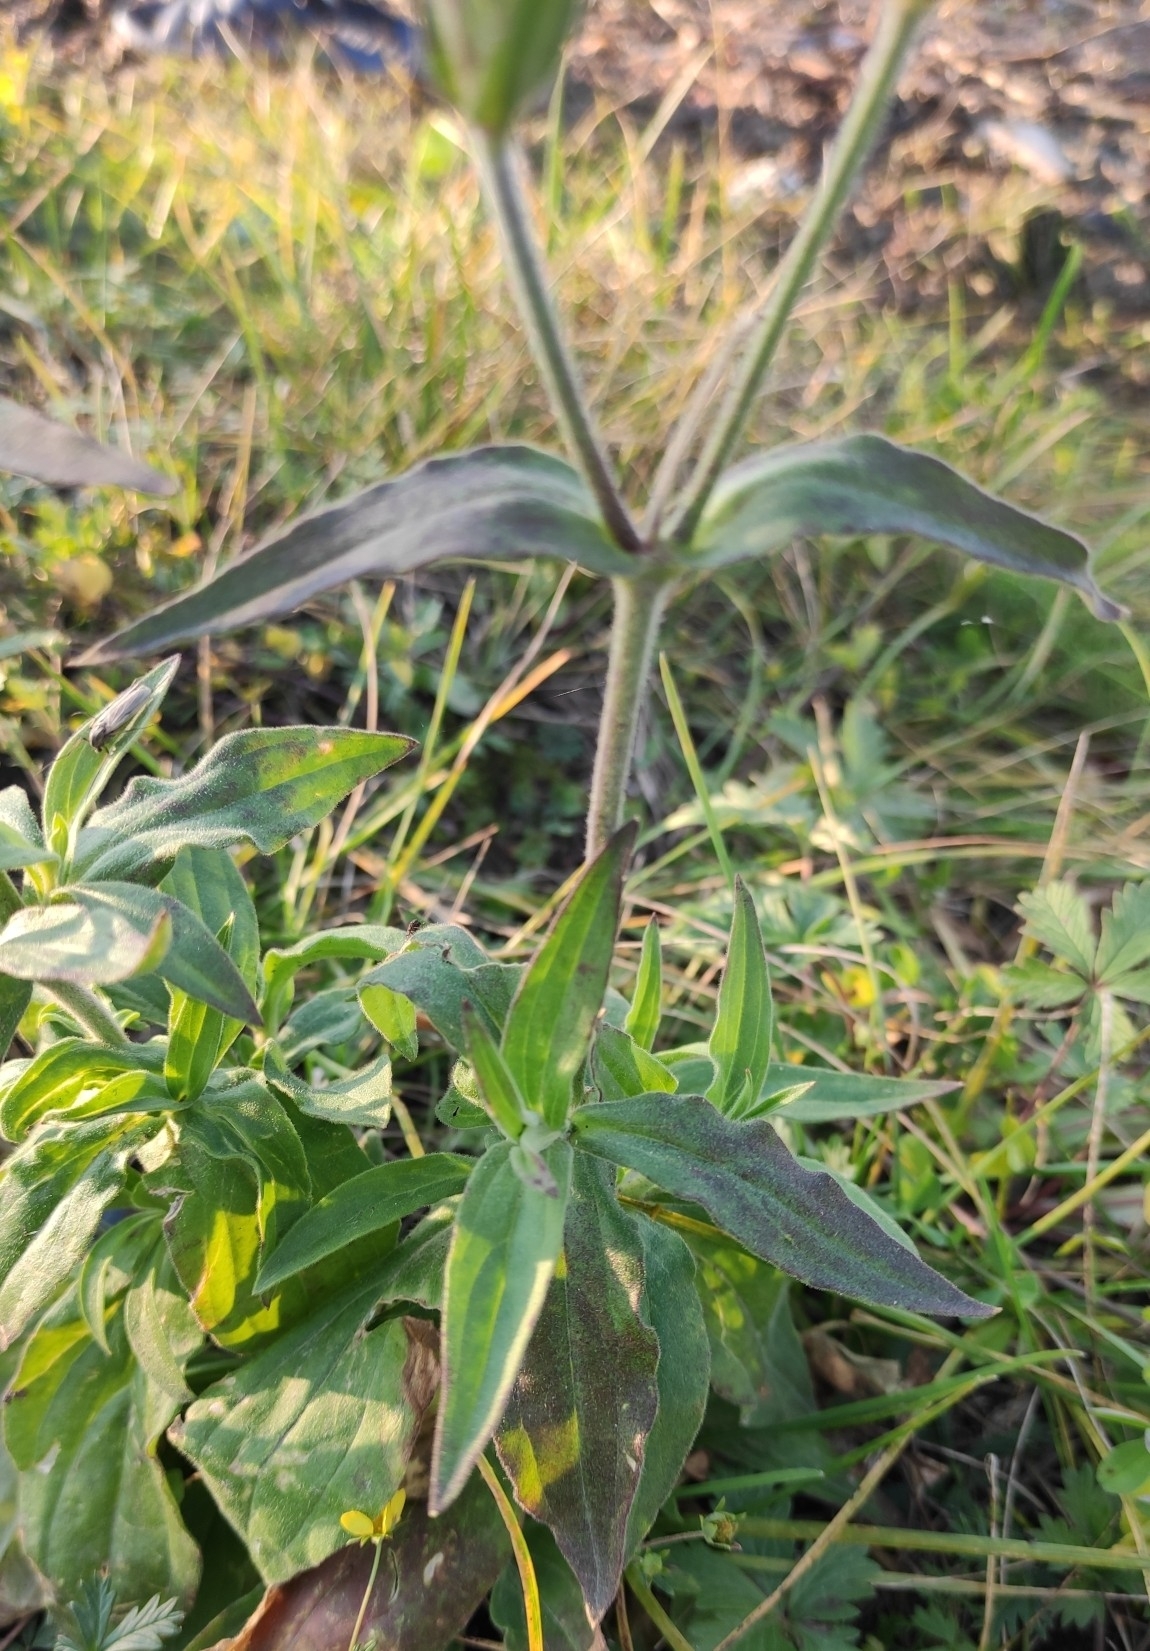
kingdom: Plantae
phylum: Tracheophyta
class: Magnoliopsida
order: Caryophyllales
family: Caryophyllaceae
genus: Silene
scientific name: Silene latifolia
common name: White campion
